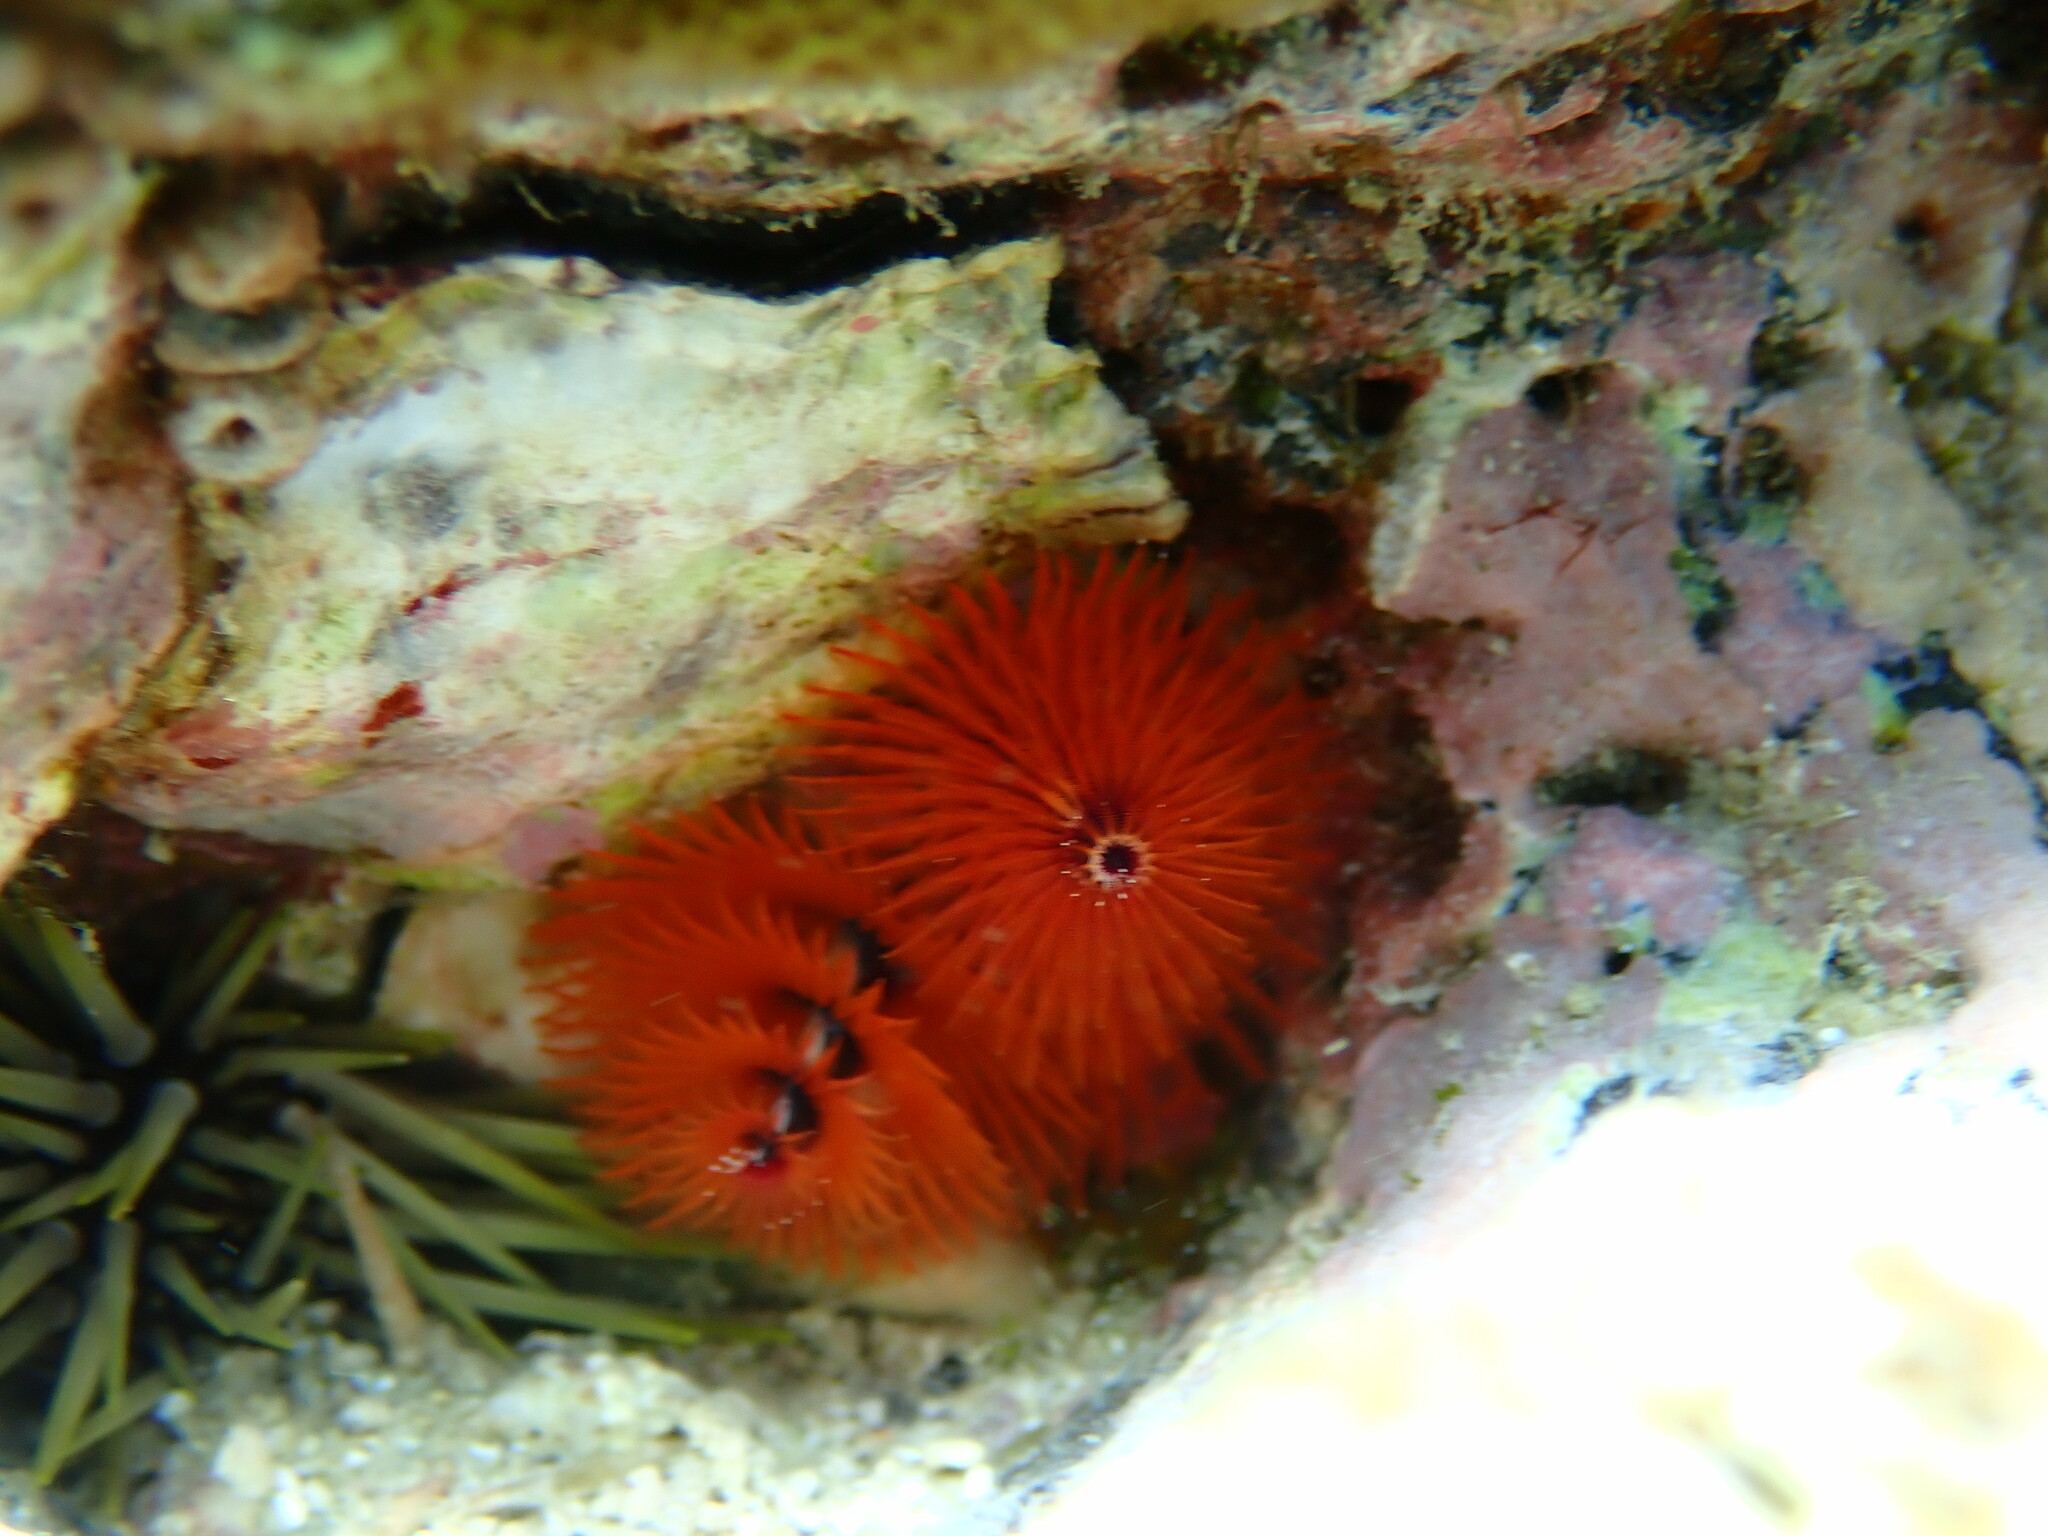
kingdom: Animalia
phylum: Annelida
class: Polychaeta
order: Sabellida
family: Serpulidae
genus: Spirobranchus
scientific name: Spirobranchus
